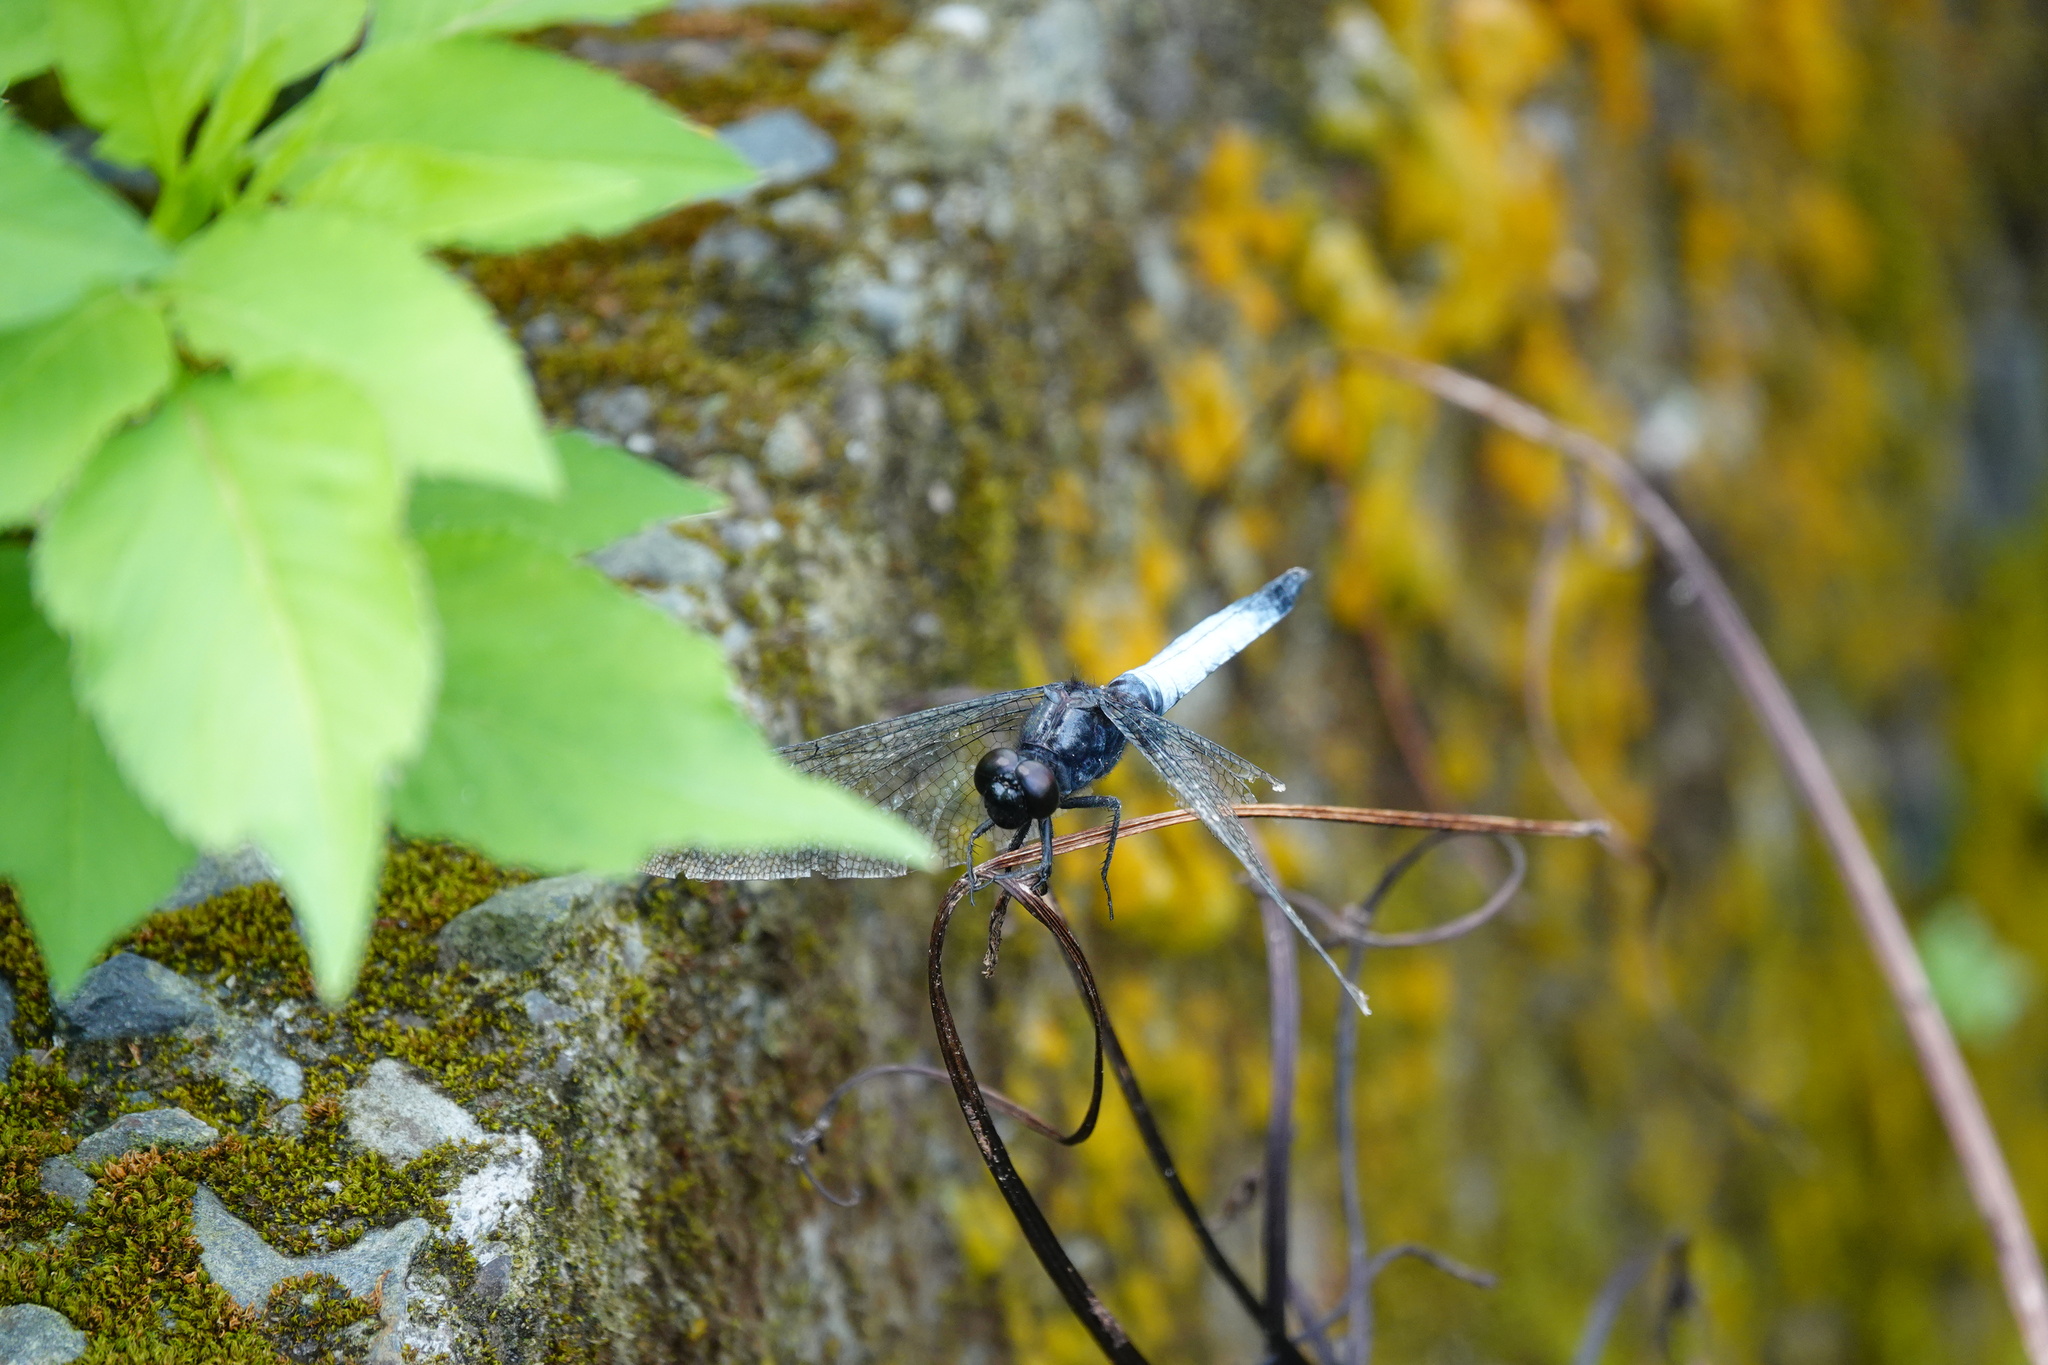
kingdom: Animalia
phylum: Arthropoda
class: Insecta
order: Odonata
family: Libellulidae
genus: Orthetrum
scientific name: Orthetrum triangulare
